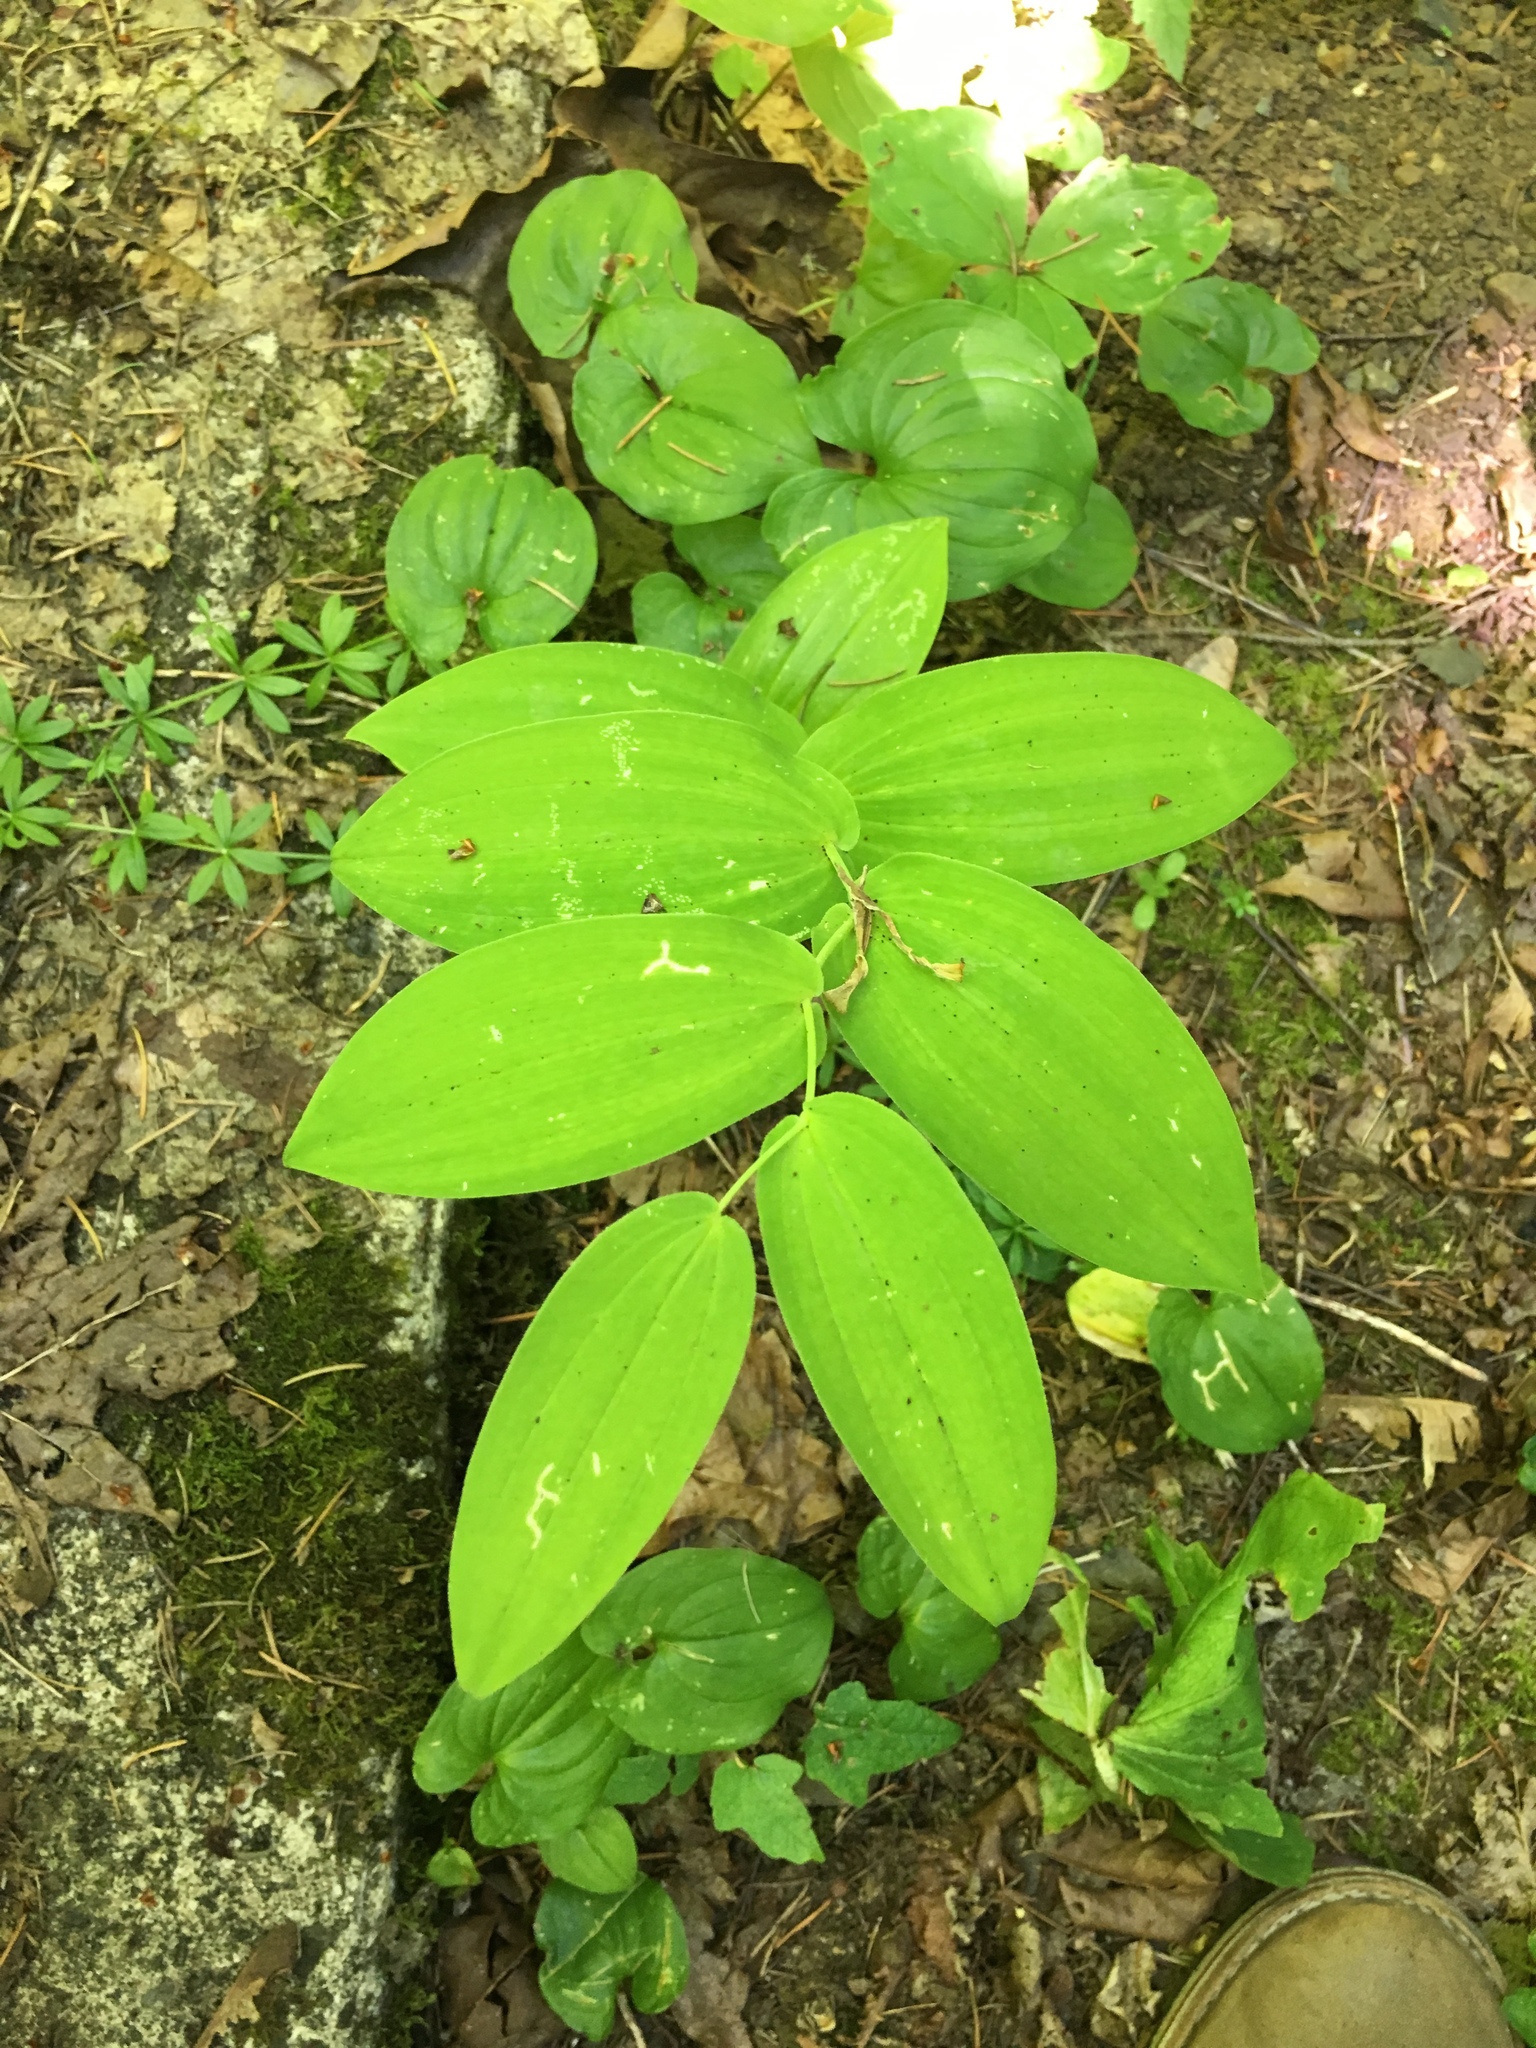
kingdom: Plantae
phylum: Tracheophyta
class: Liliopsida
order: Liliales
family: Liliaceae
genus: Streptopus
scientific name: Streptopus amplexifolius
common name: Clasp twisted stalk
